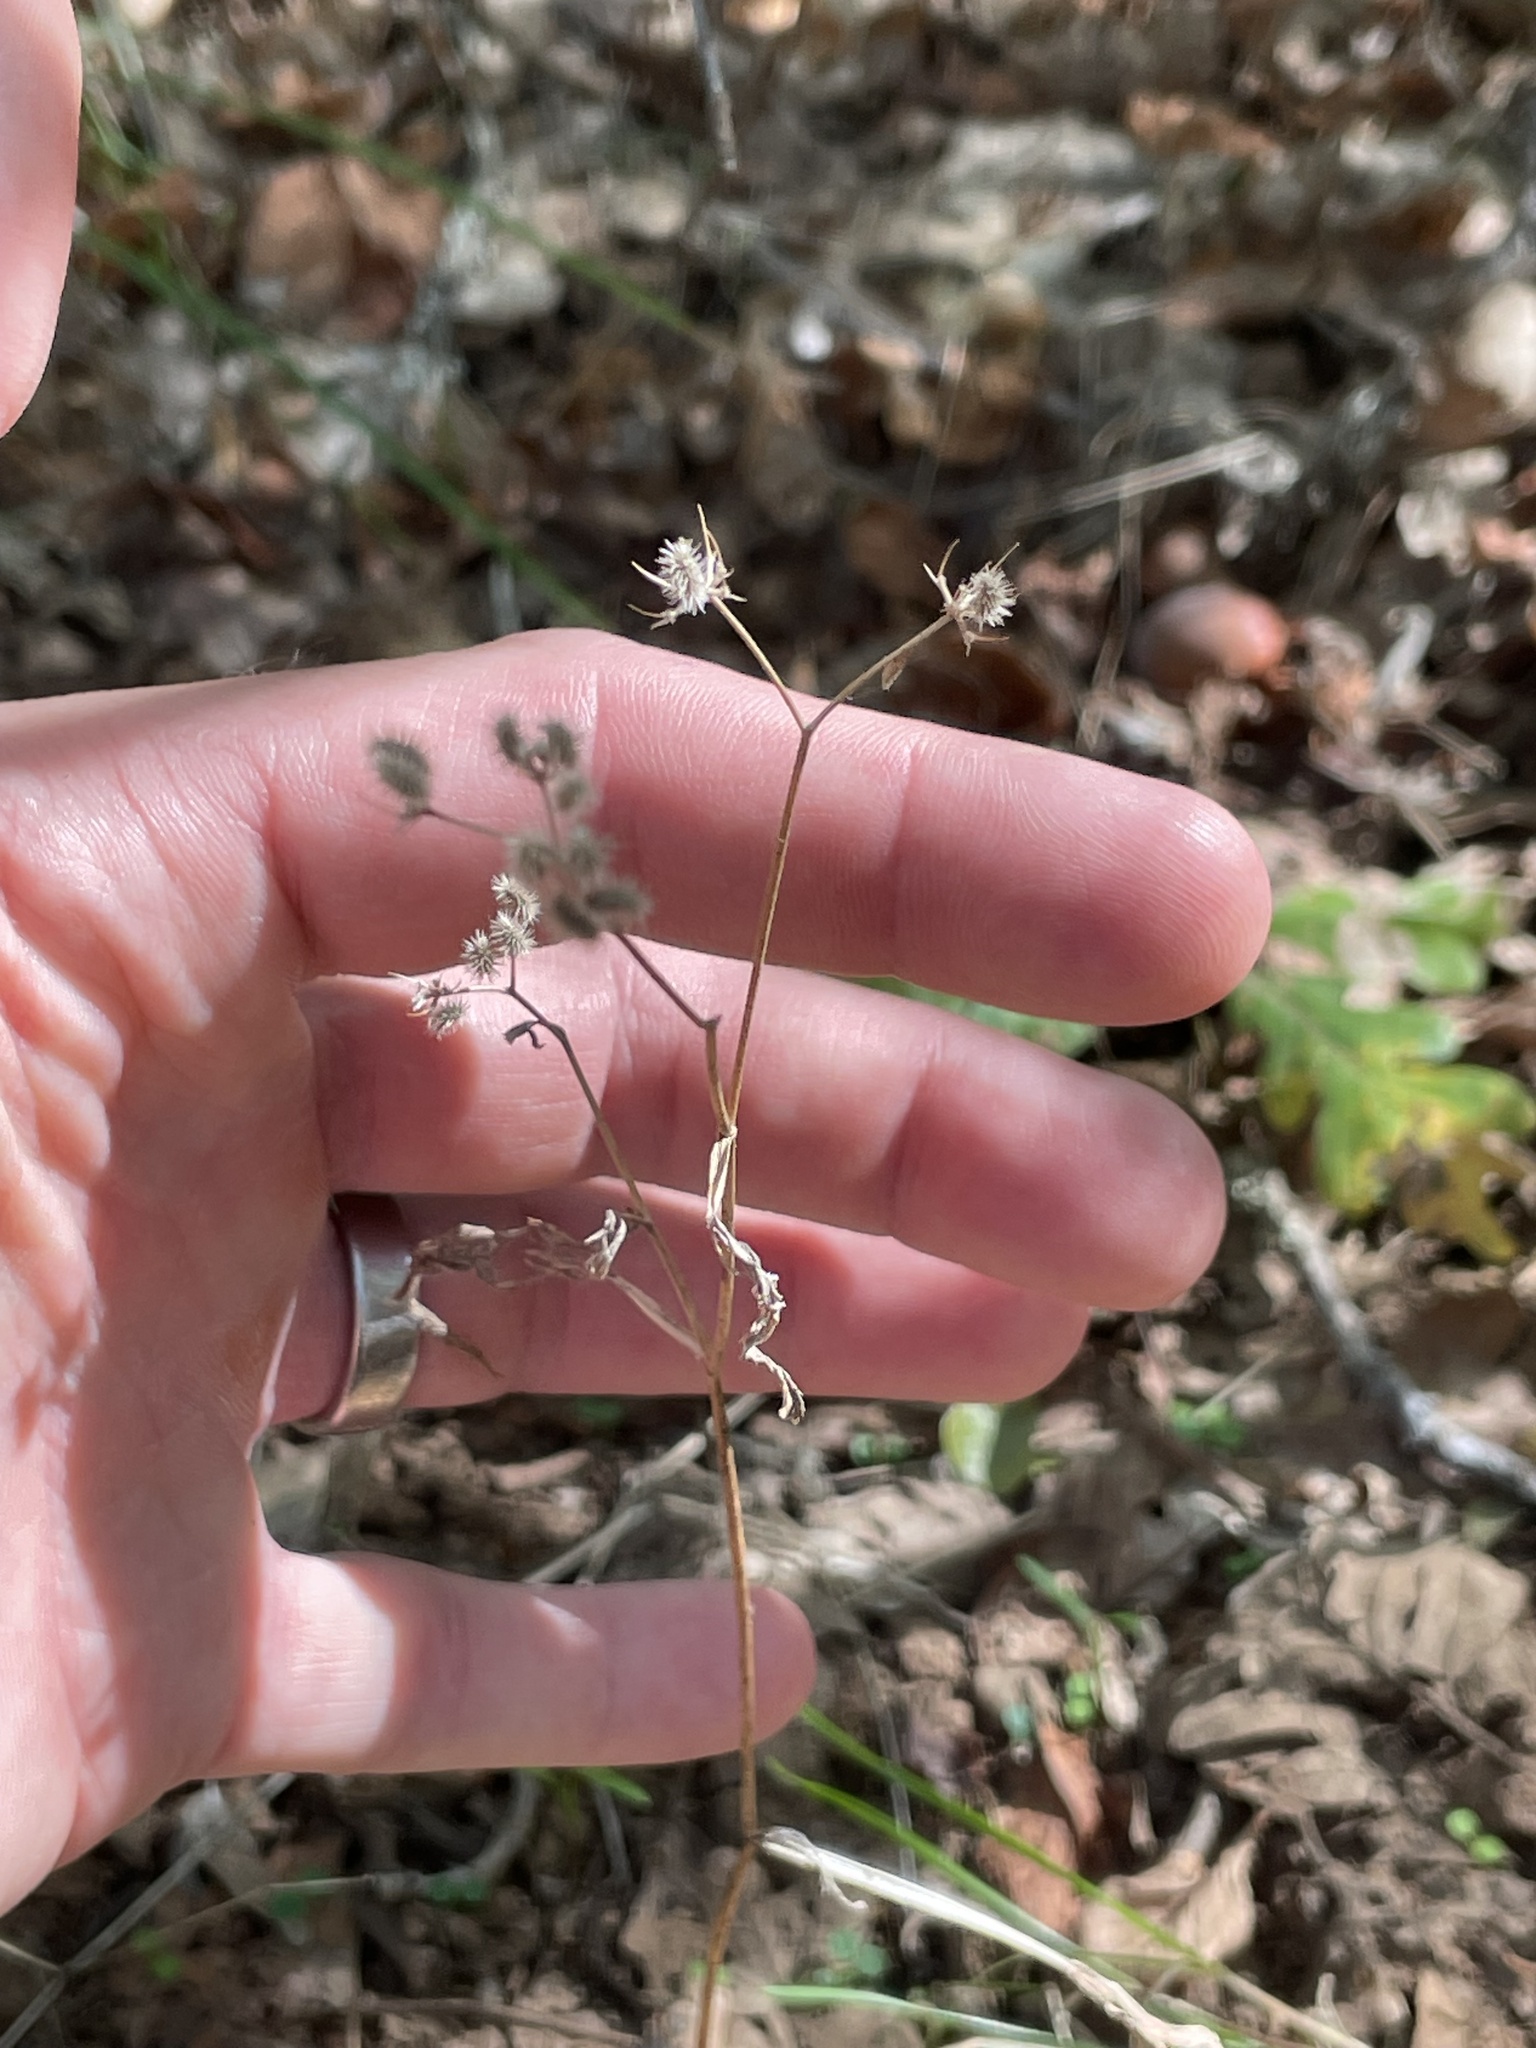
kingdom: Plantae
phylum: Tracheophyta
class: Magnoliopsida
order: Apiales
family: Apiaceae
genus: Torilis
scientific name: Torilis arvensis
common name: Spreading hedge-parsley
